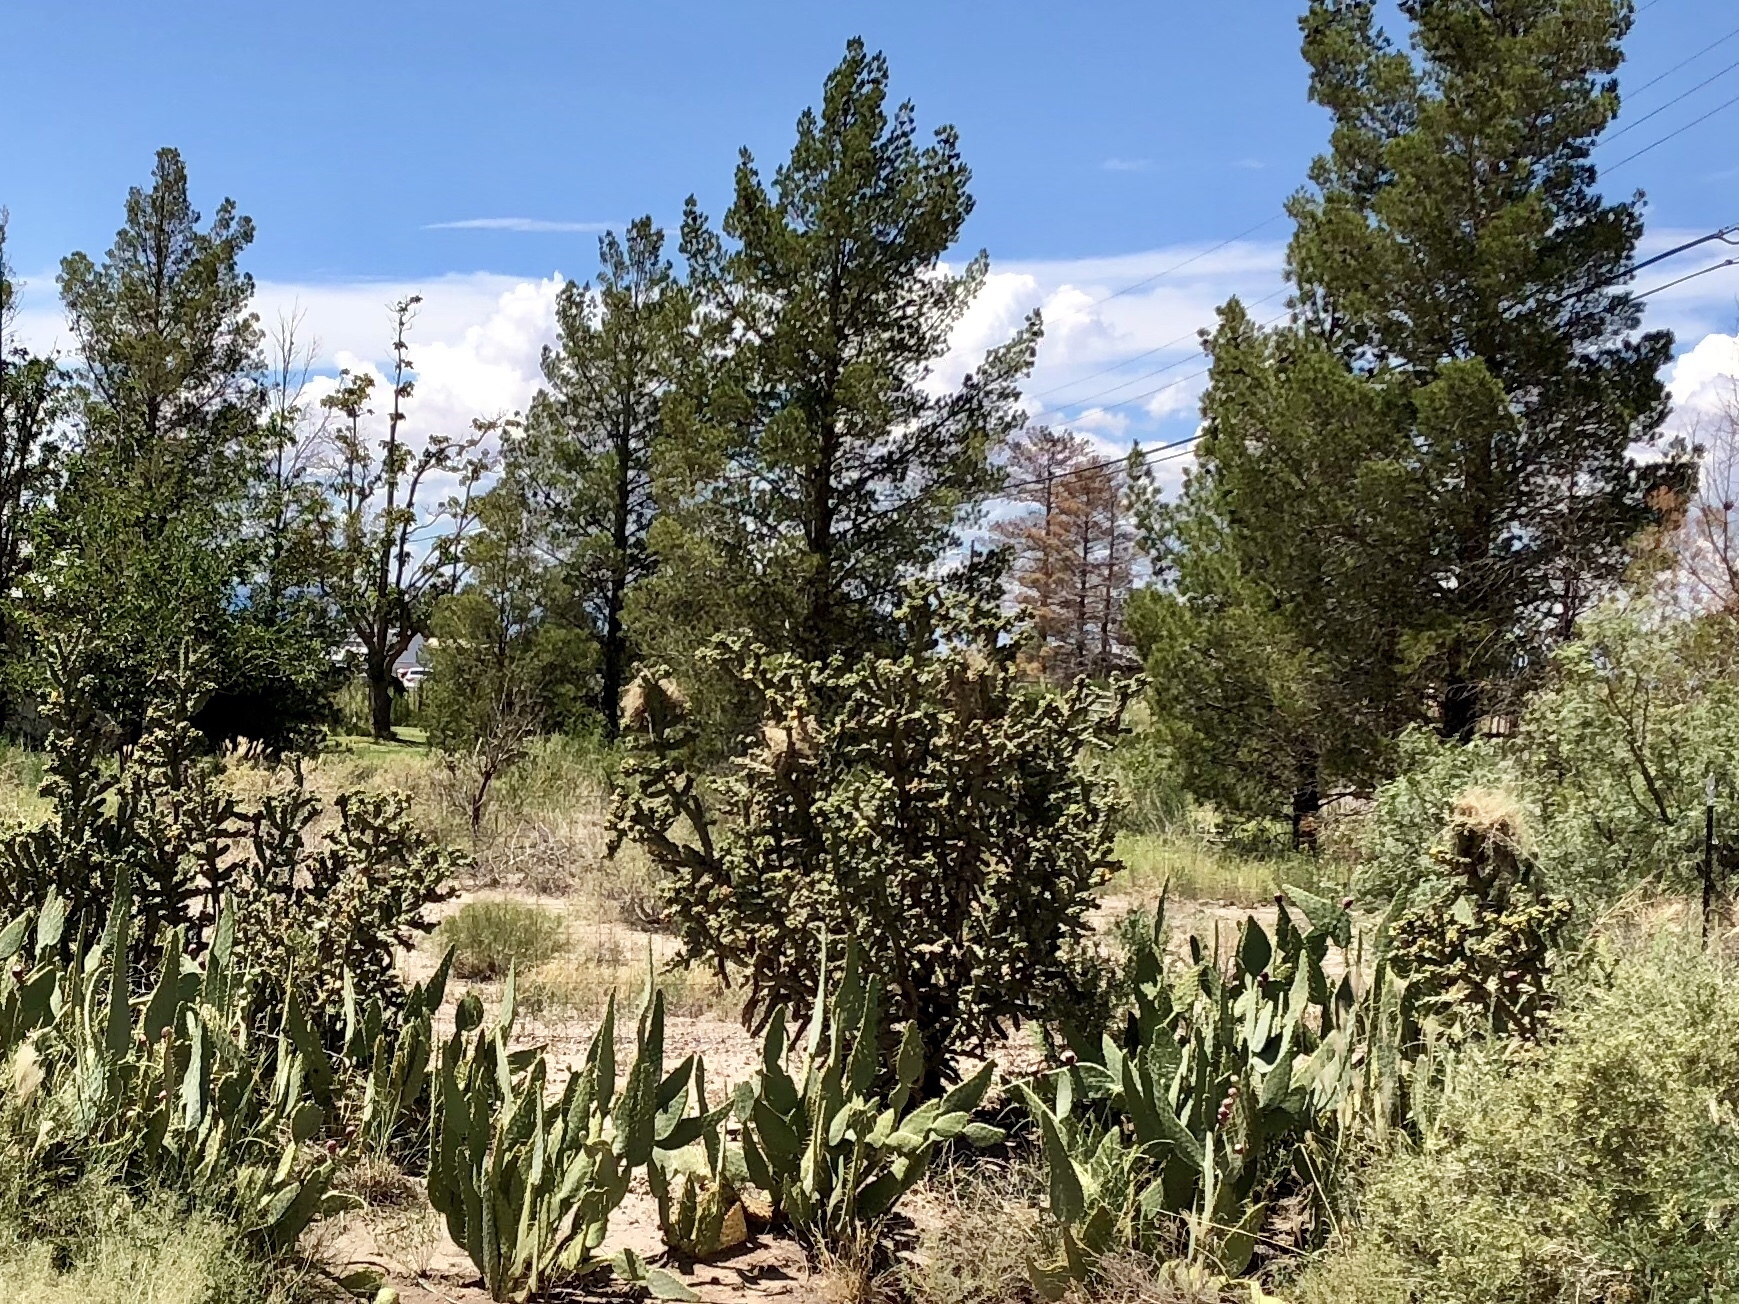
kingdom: Plantae
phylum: Tracheophyta
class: Magnoliopsida
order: Caryophyllales
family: Cactaceae
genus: Cylindropuntia
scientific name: Cylindropuntia imbricata
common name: Candelabrum cactus
